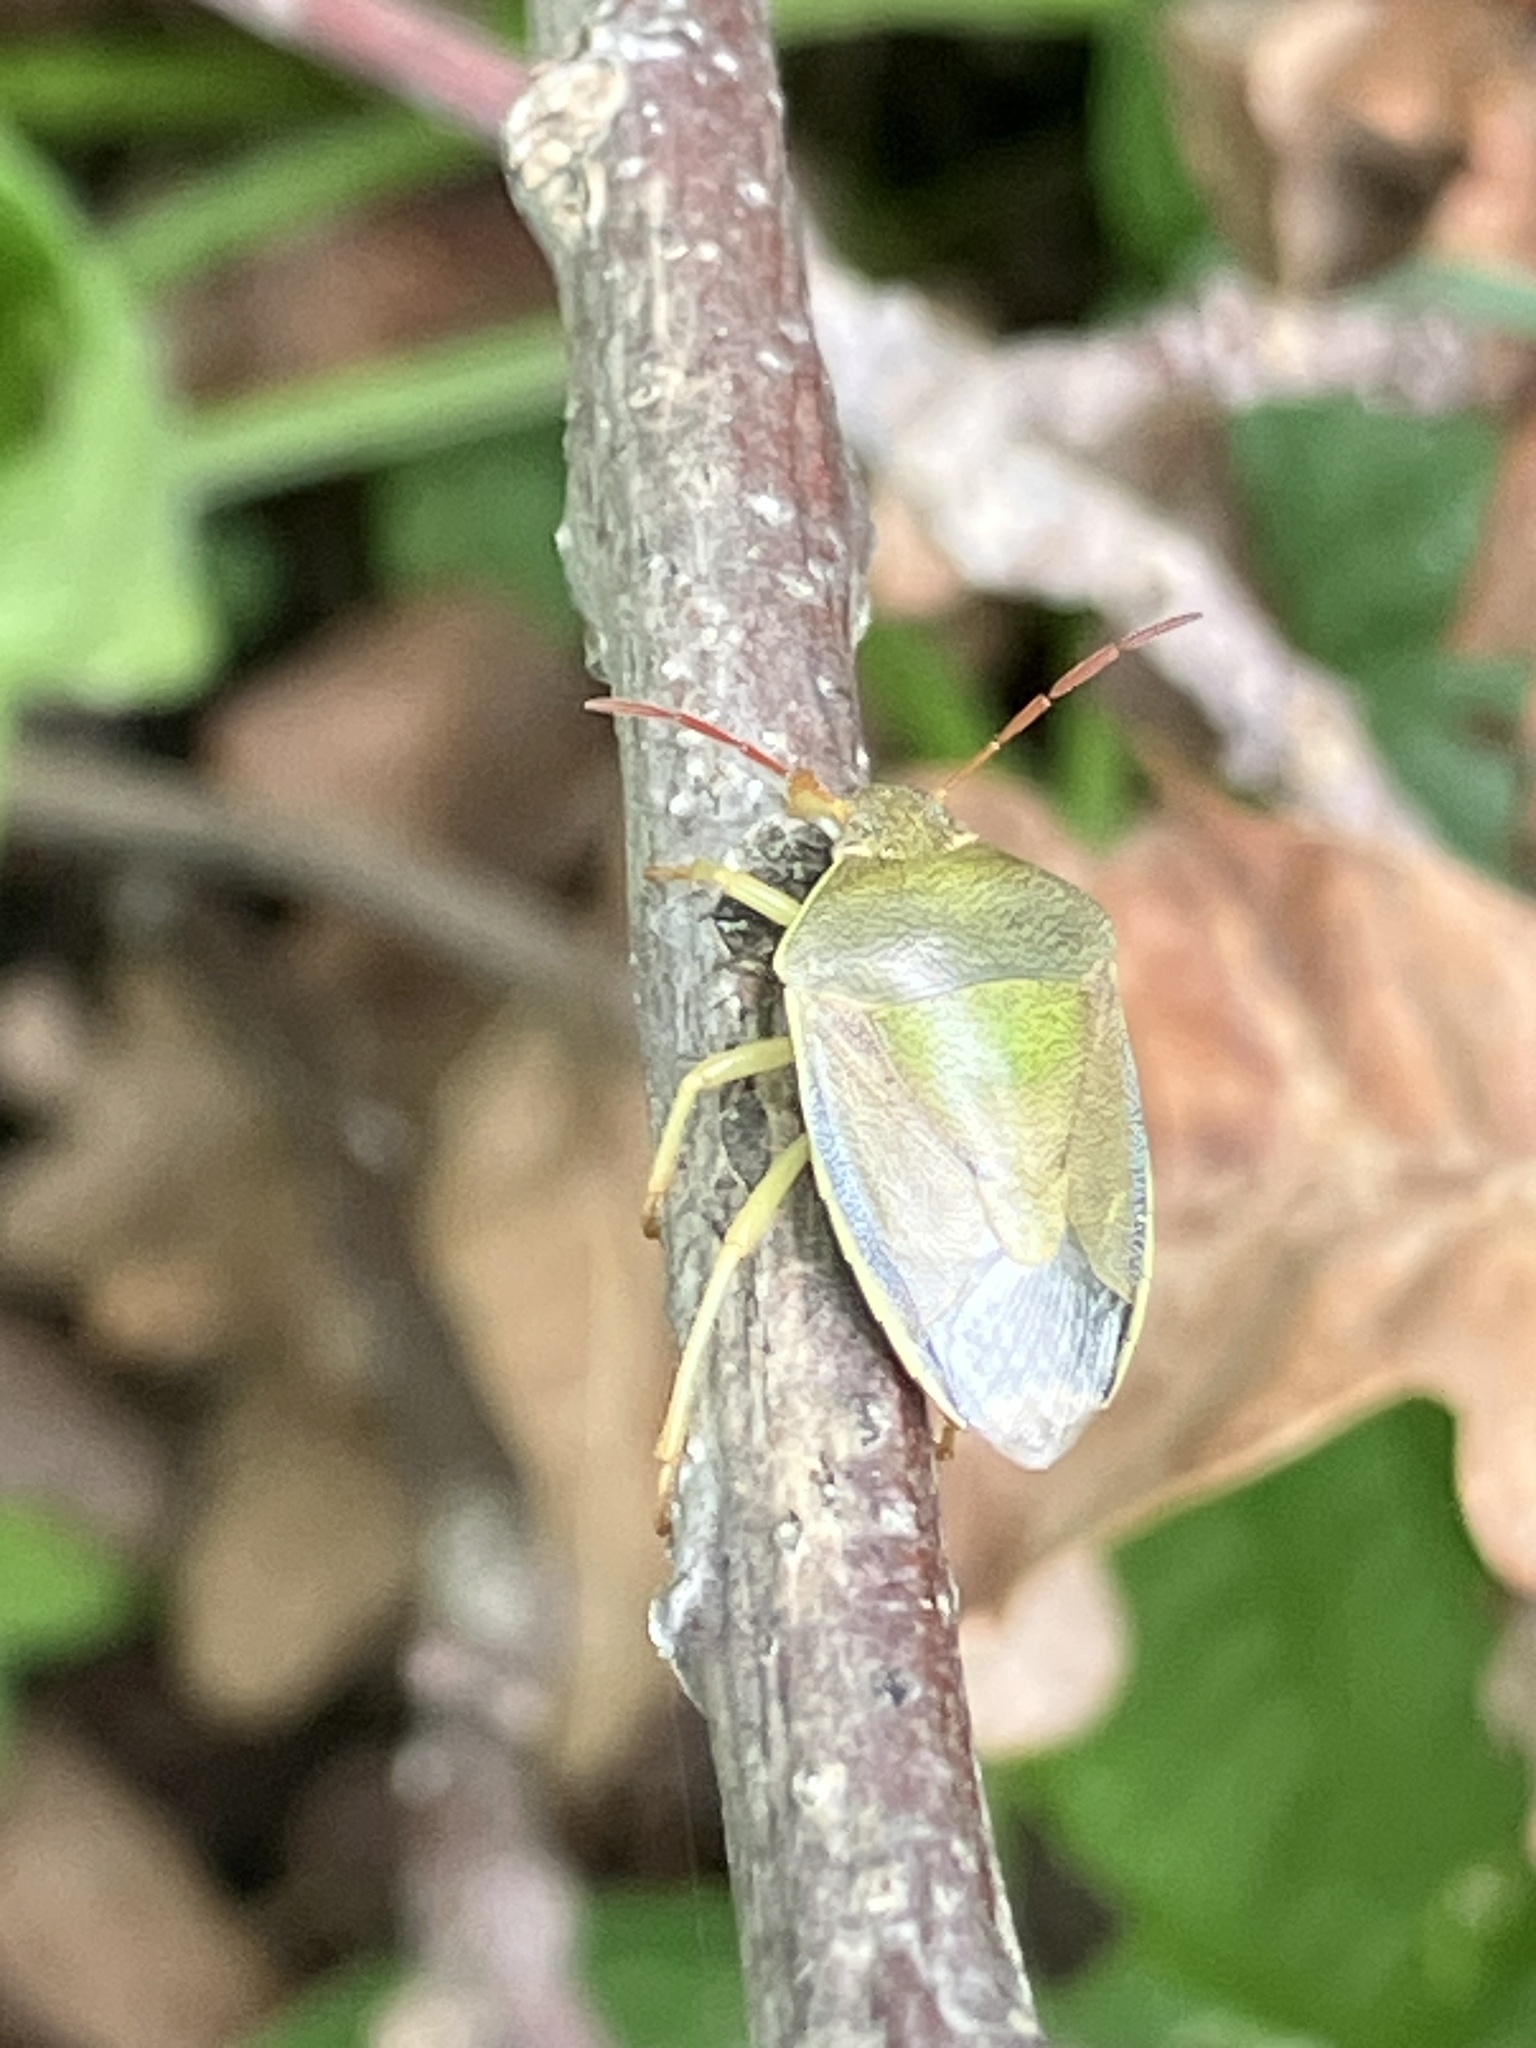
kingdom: Animalia
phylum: Arthropoda
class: Insecta
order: Hemiptera
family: Pentatomidae
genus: Piezodorus
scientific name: Piezodorus lituratus
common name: Stink bug
